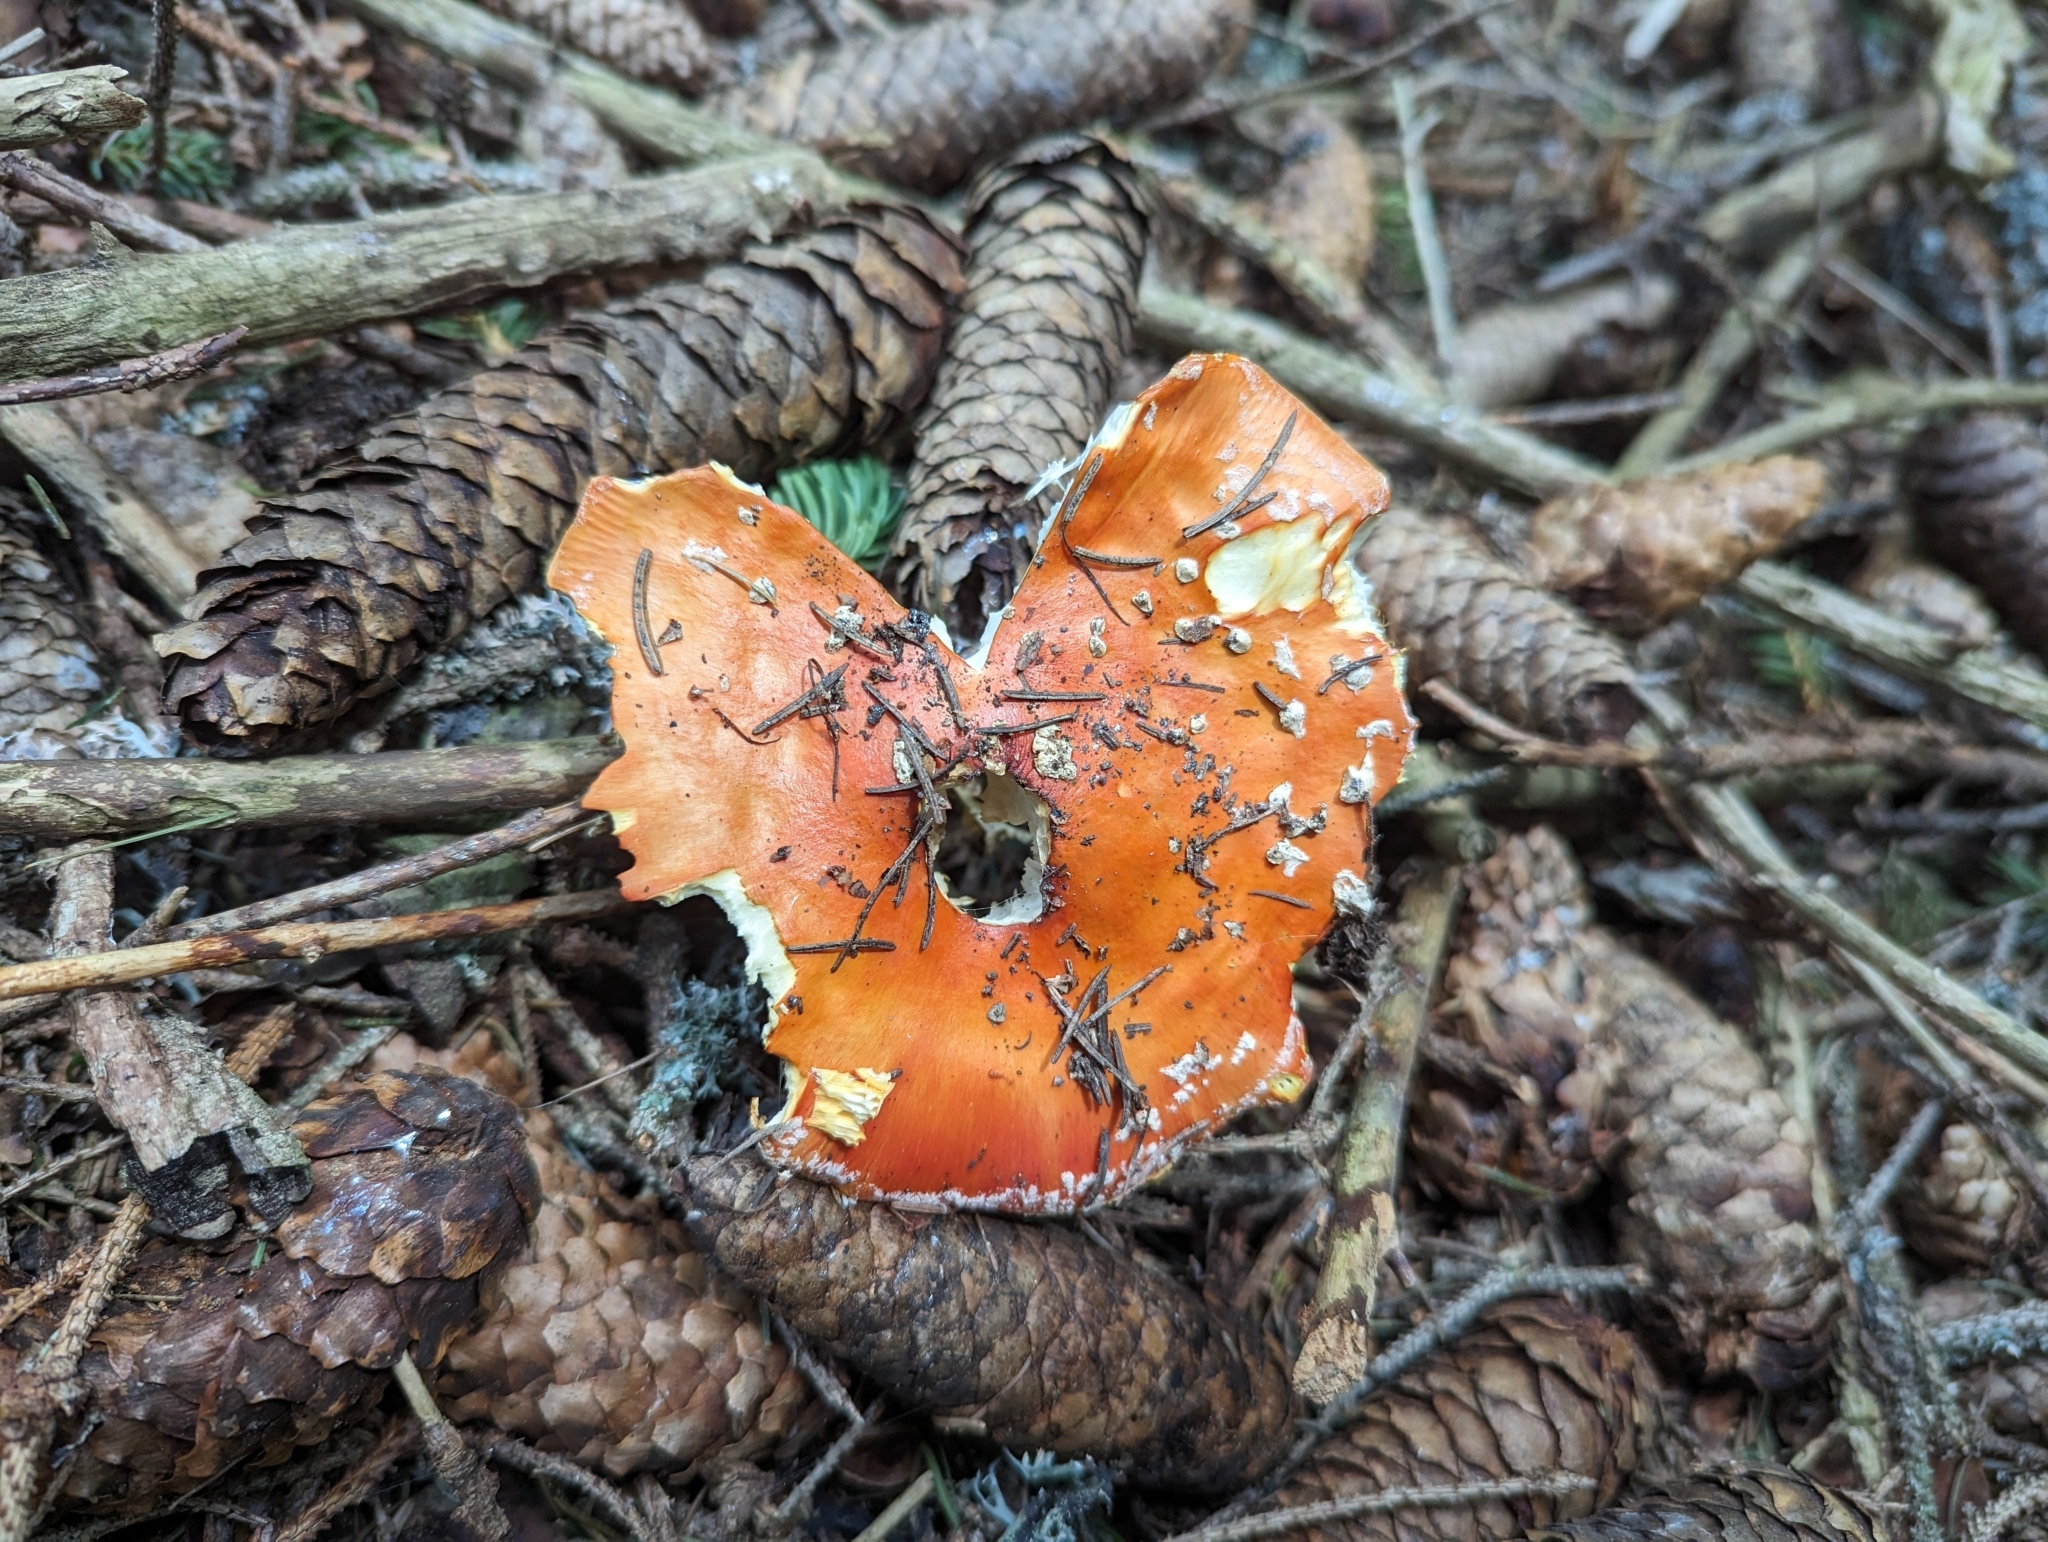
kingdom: Fungi
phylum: Basidiomycota
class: Agaricomycetes
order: Agaricales
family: Amanitaceae
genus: Amanita
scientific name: Amanita muscaria
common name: Fly agaric
